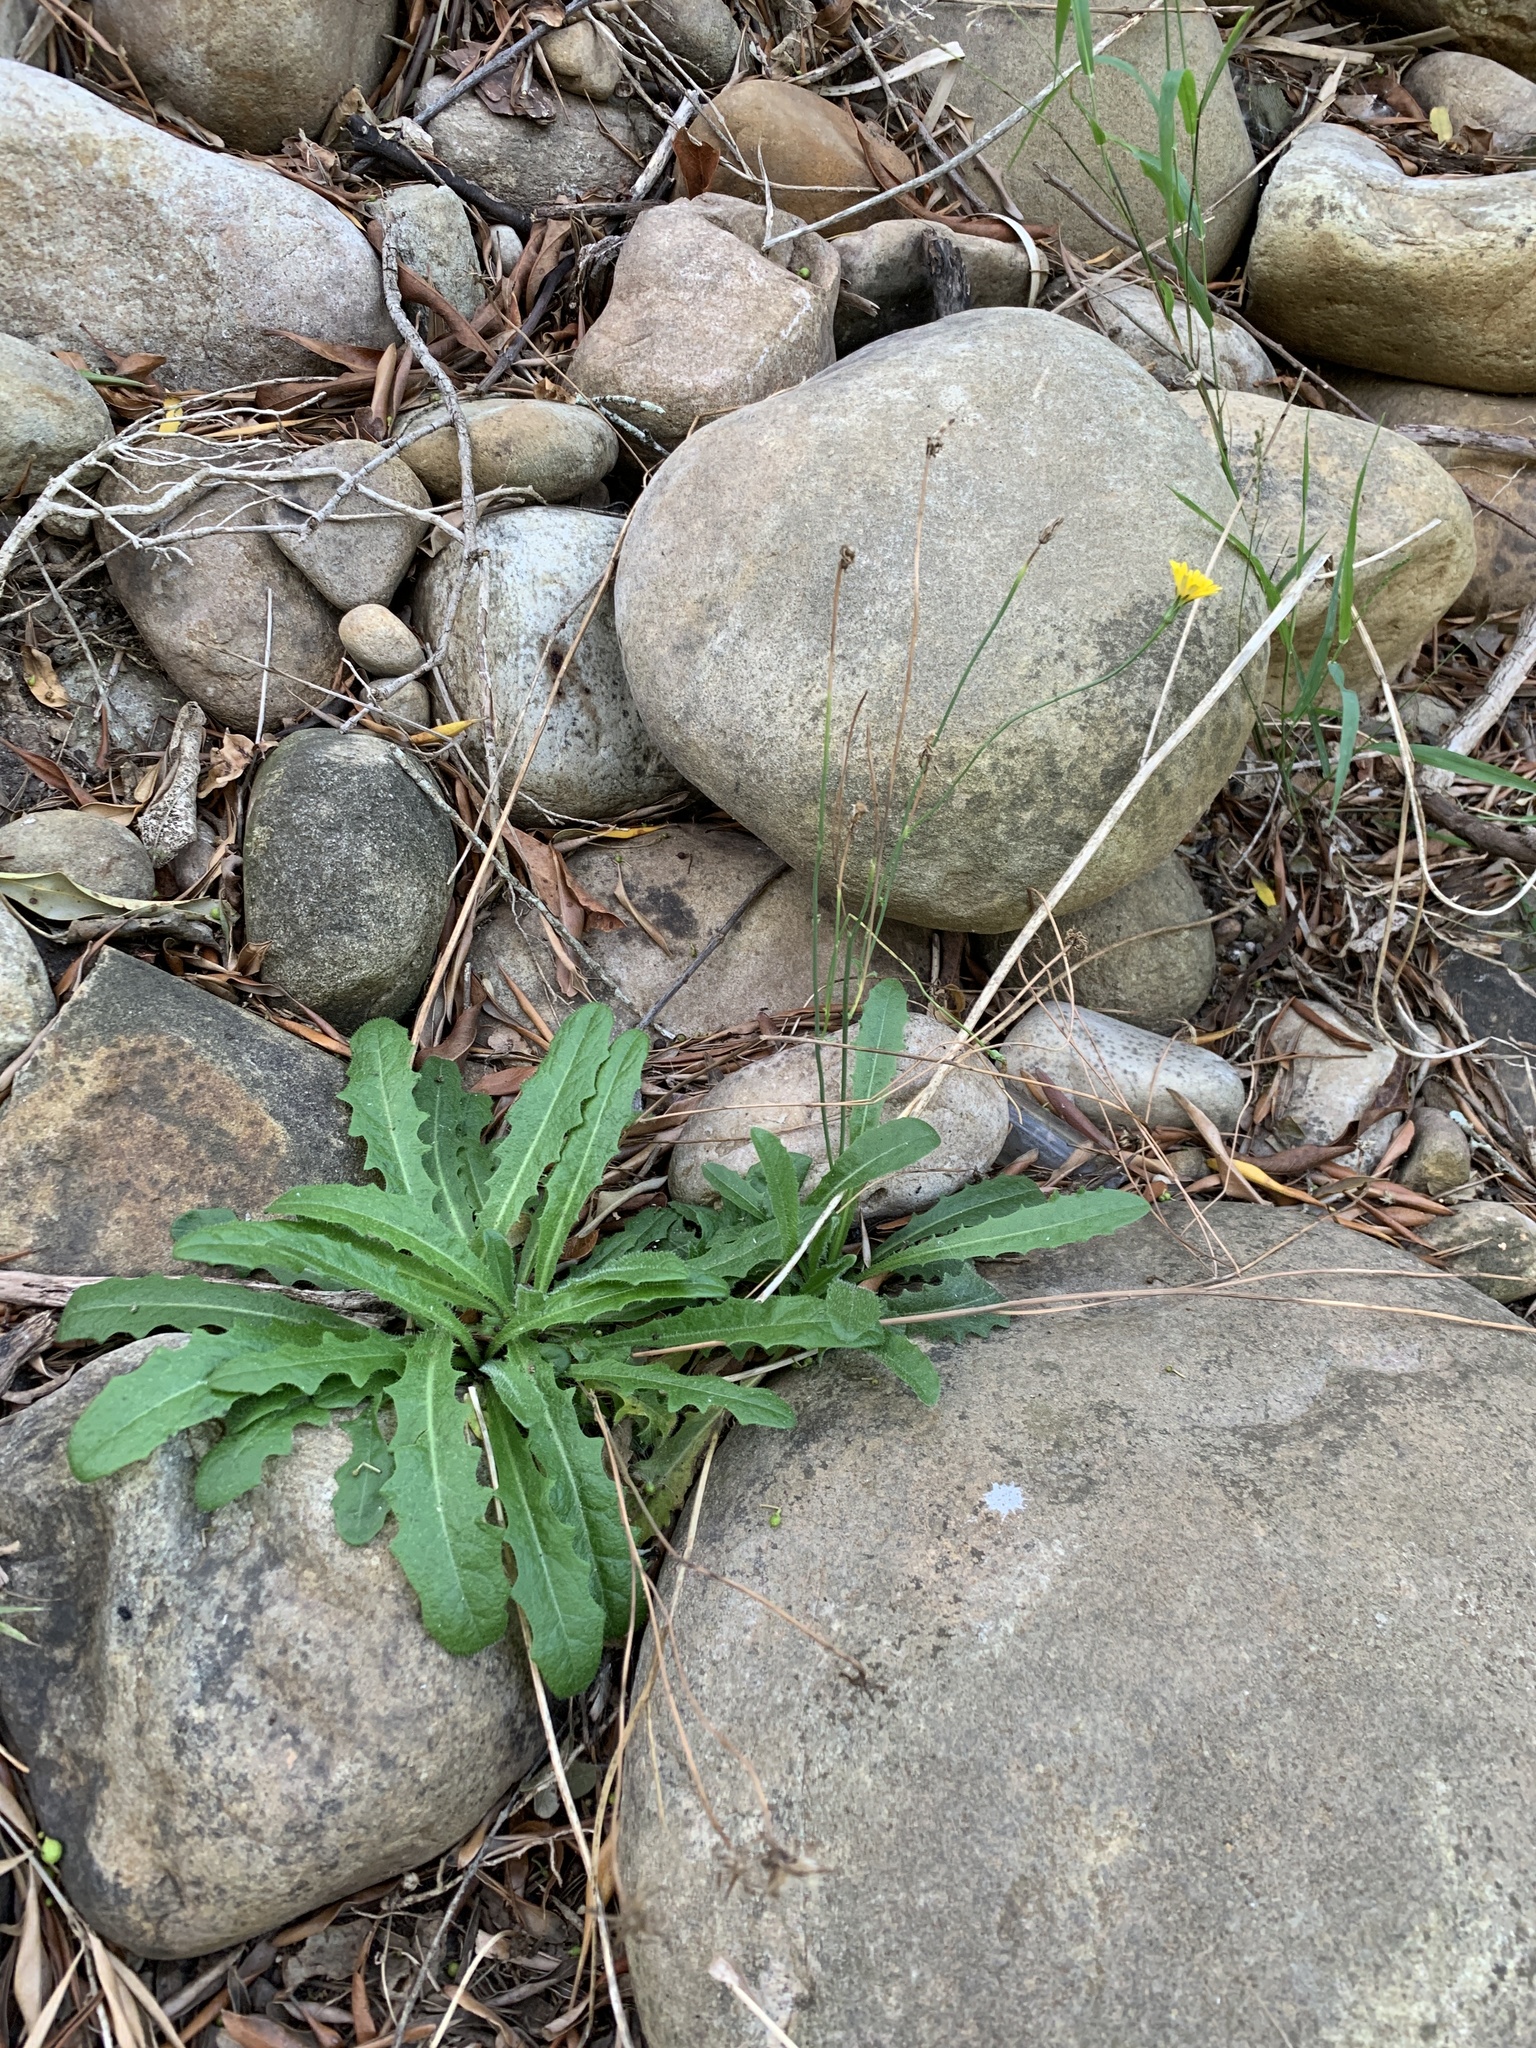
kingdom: Plantae
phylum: Tracheophyta
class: Magnoliopsida
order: Asterales
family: Asteraceae
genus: Hypochaeris
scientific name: Hypochaeris radicata
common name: Flatweed
